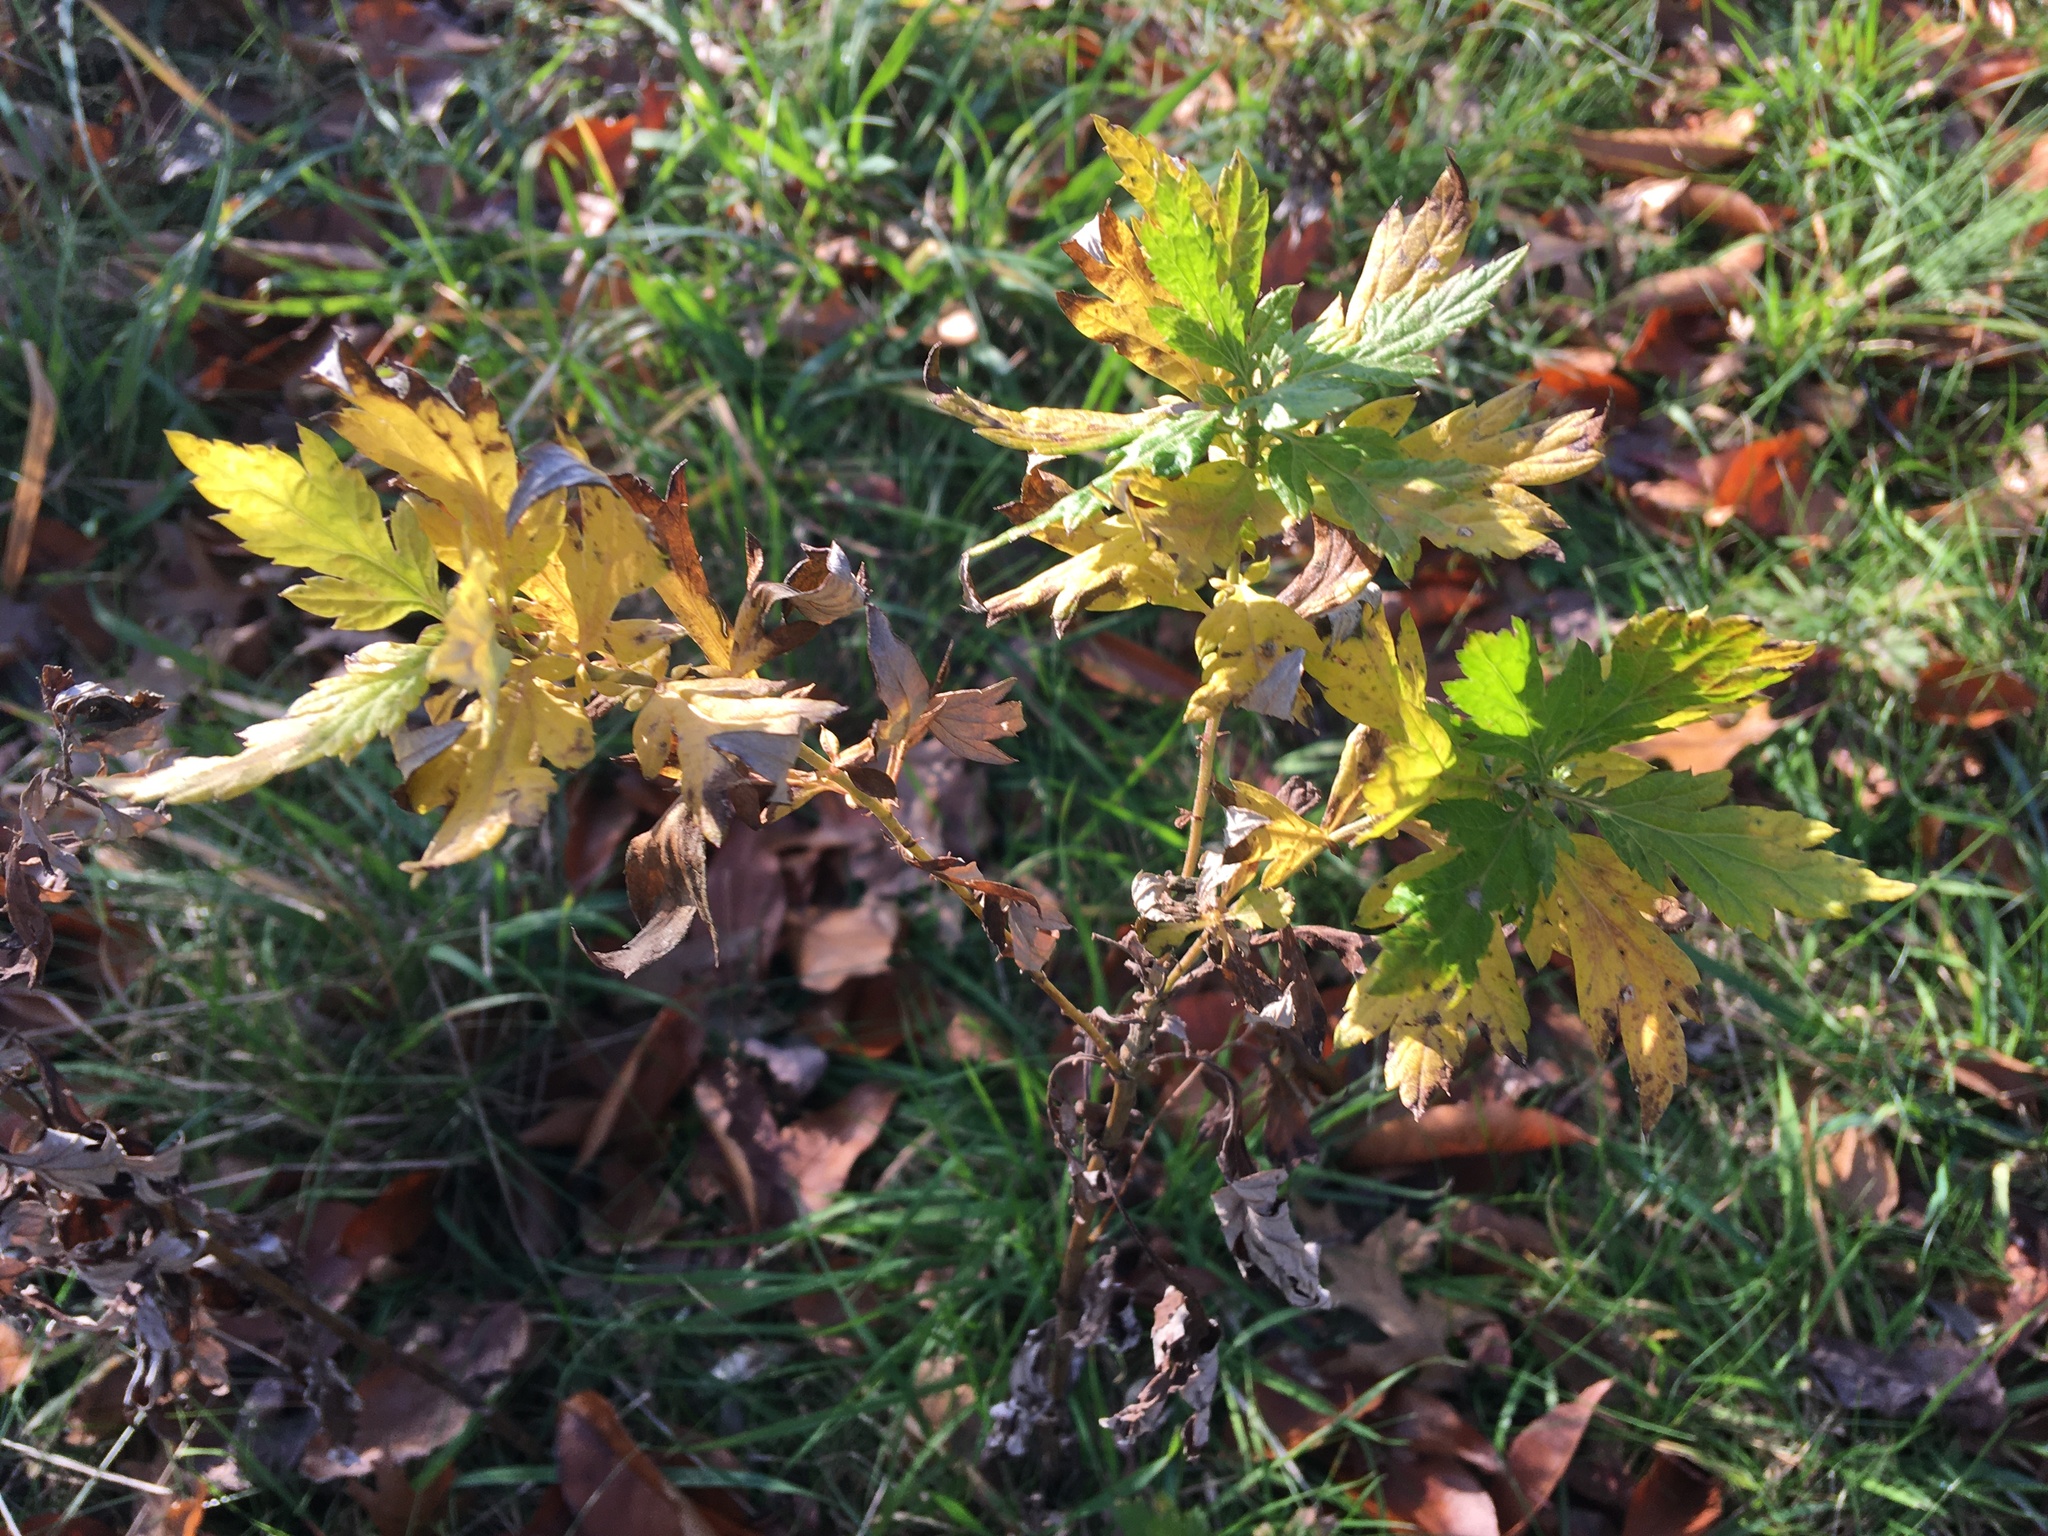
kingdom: Plantae
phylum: Tracheophyta
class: Magnoliopsida
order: Asterales
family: Asteraceae
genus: Artemisia
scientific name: Artemisia vulgaris
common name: Mugwort
